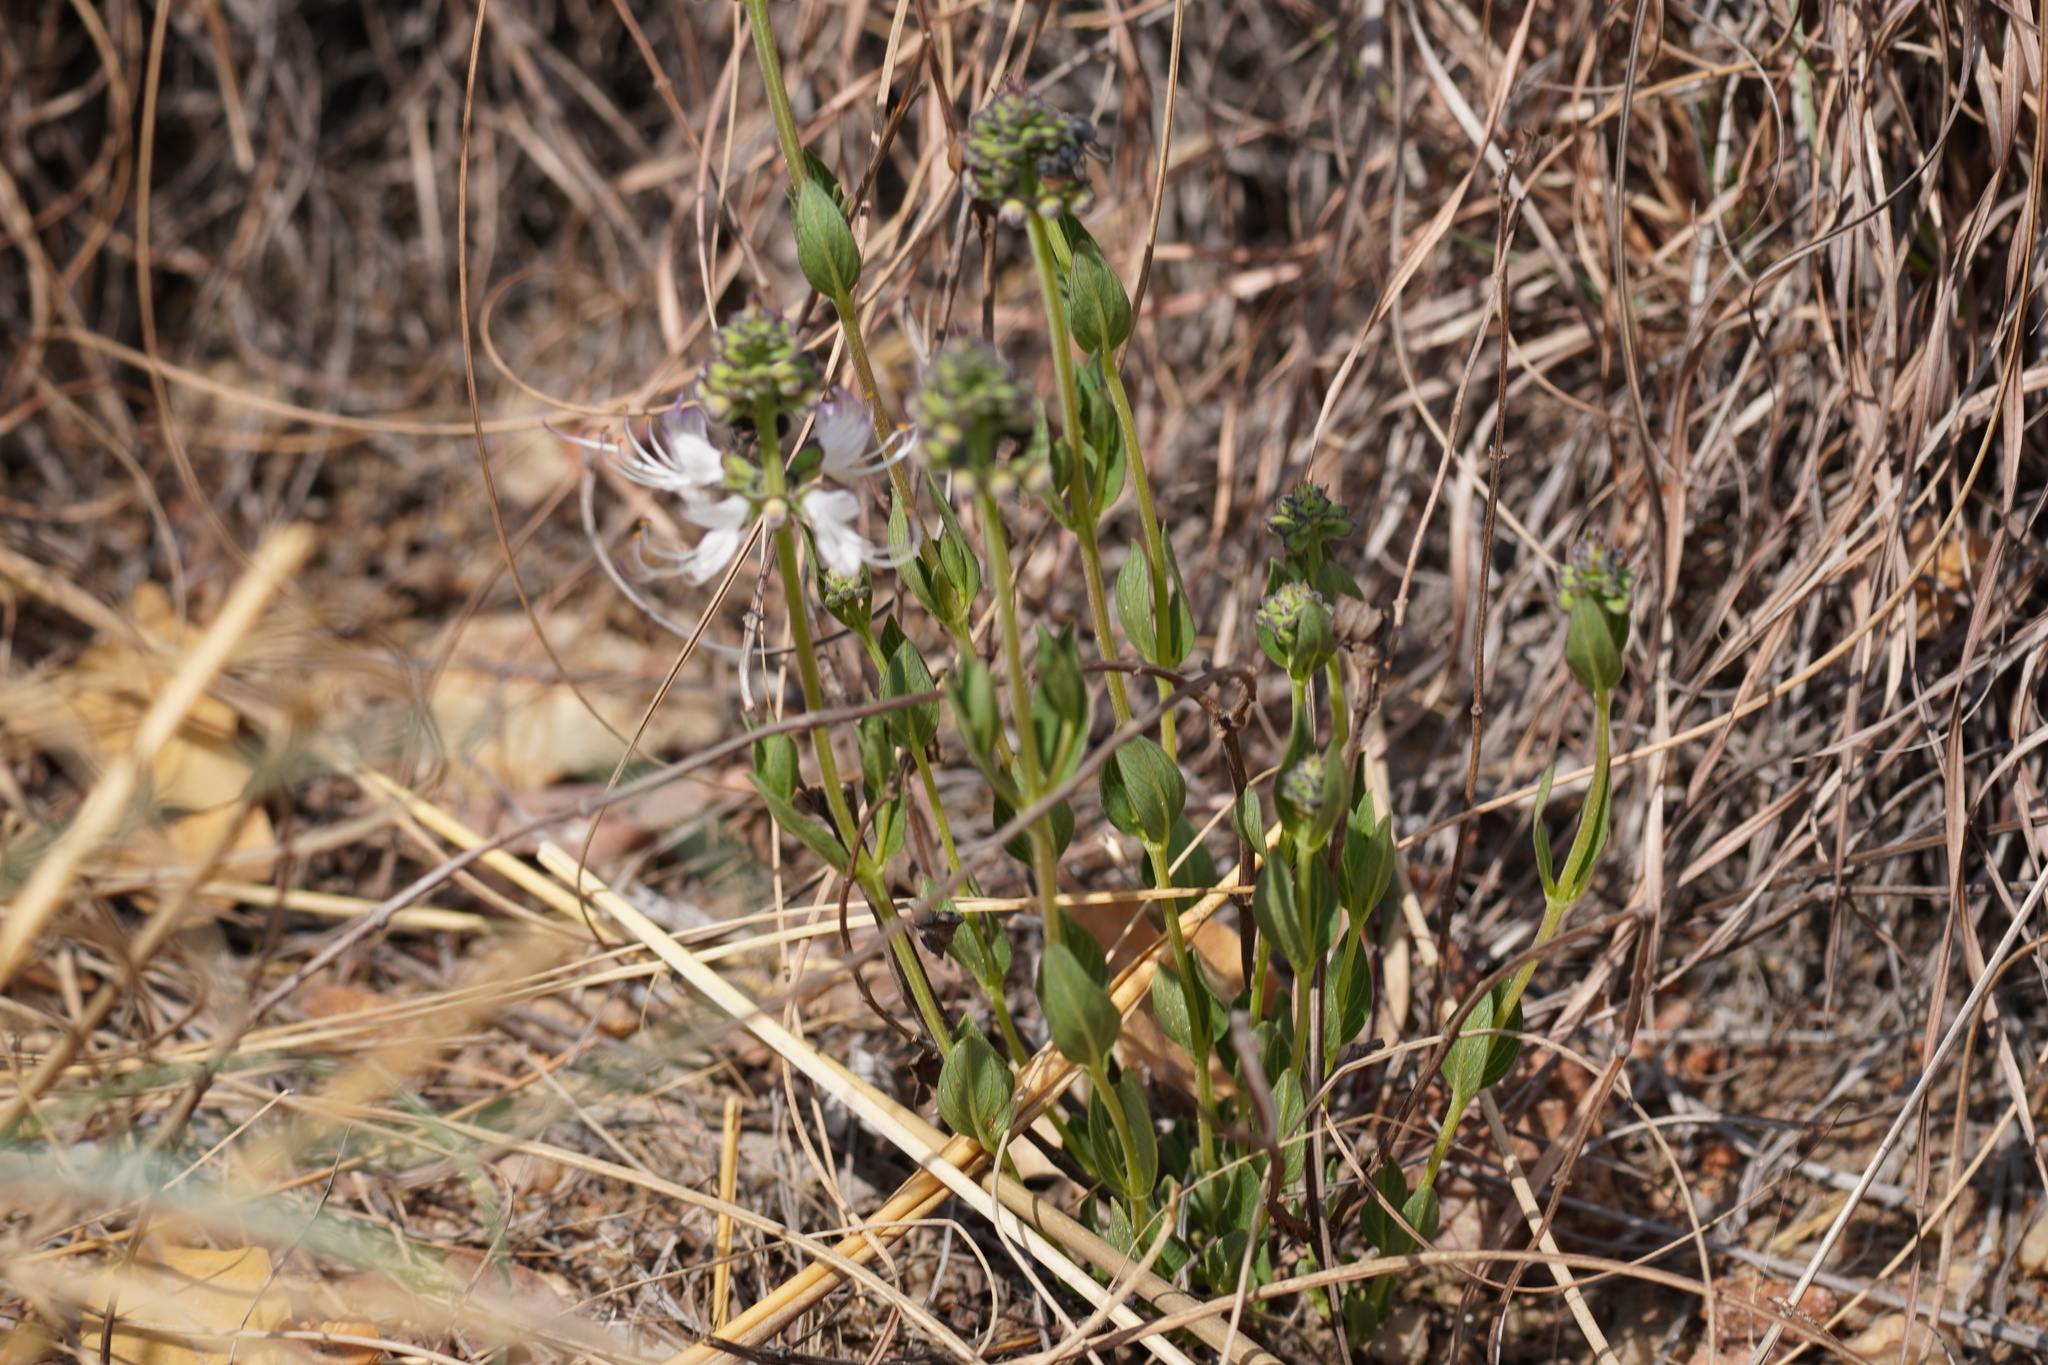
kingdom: Plantae
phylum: Tracheophyta
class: Magnoliopsida
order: Lamiales
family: Lamiaceae
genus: Ocimum
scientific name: Ocimum obovatum
